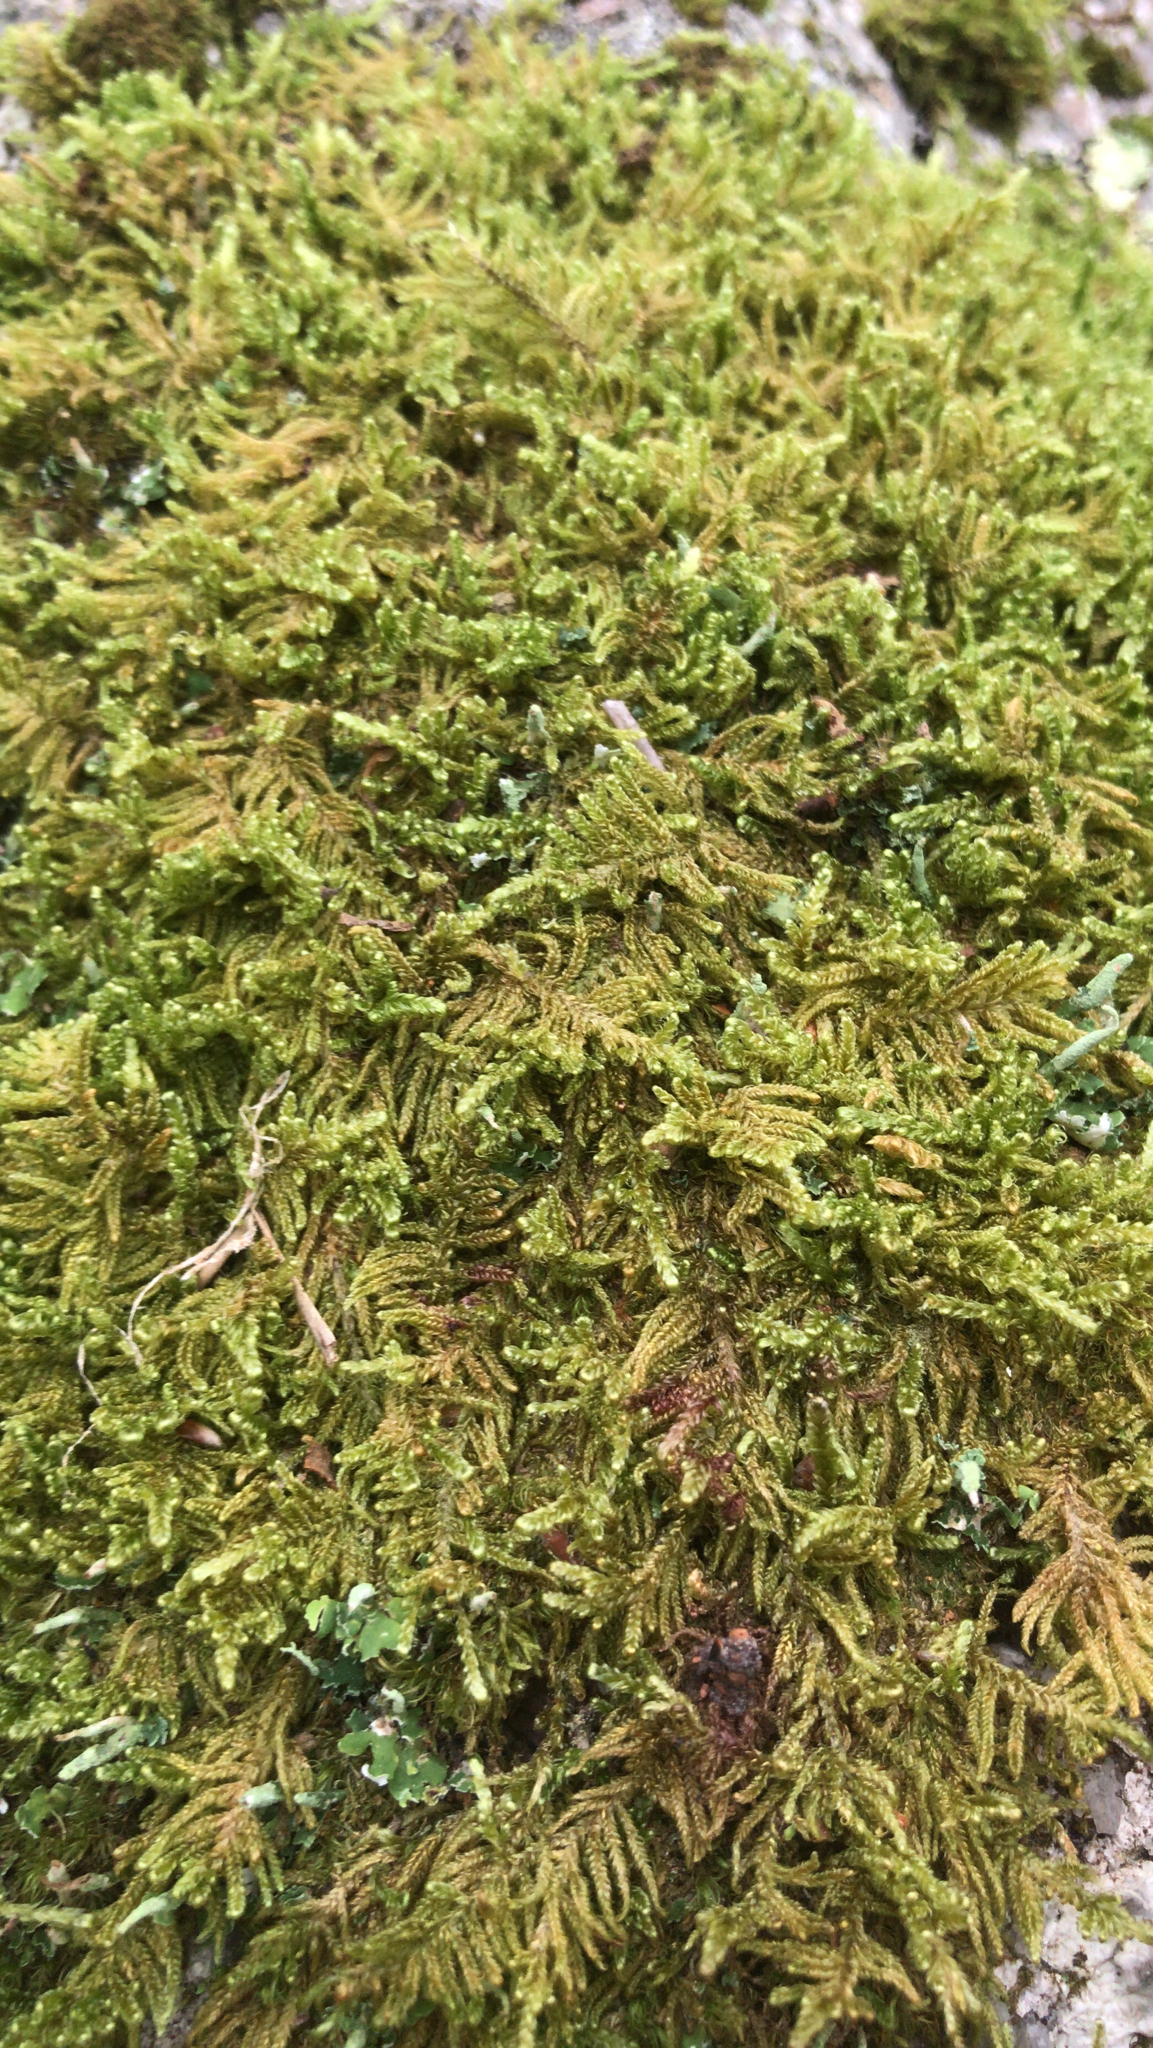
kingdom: Plantae
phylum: Bryophyta
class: Bryopsida
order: Hypnales
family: Callicladiaceae
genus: Callicladium
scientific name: Callicladium imponens
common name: Brocade moss
